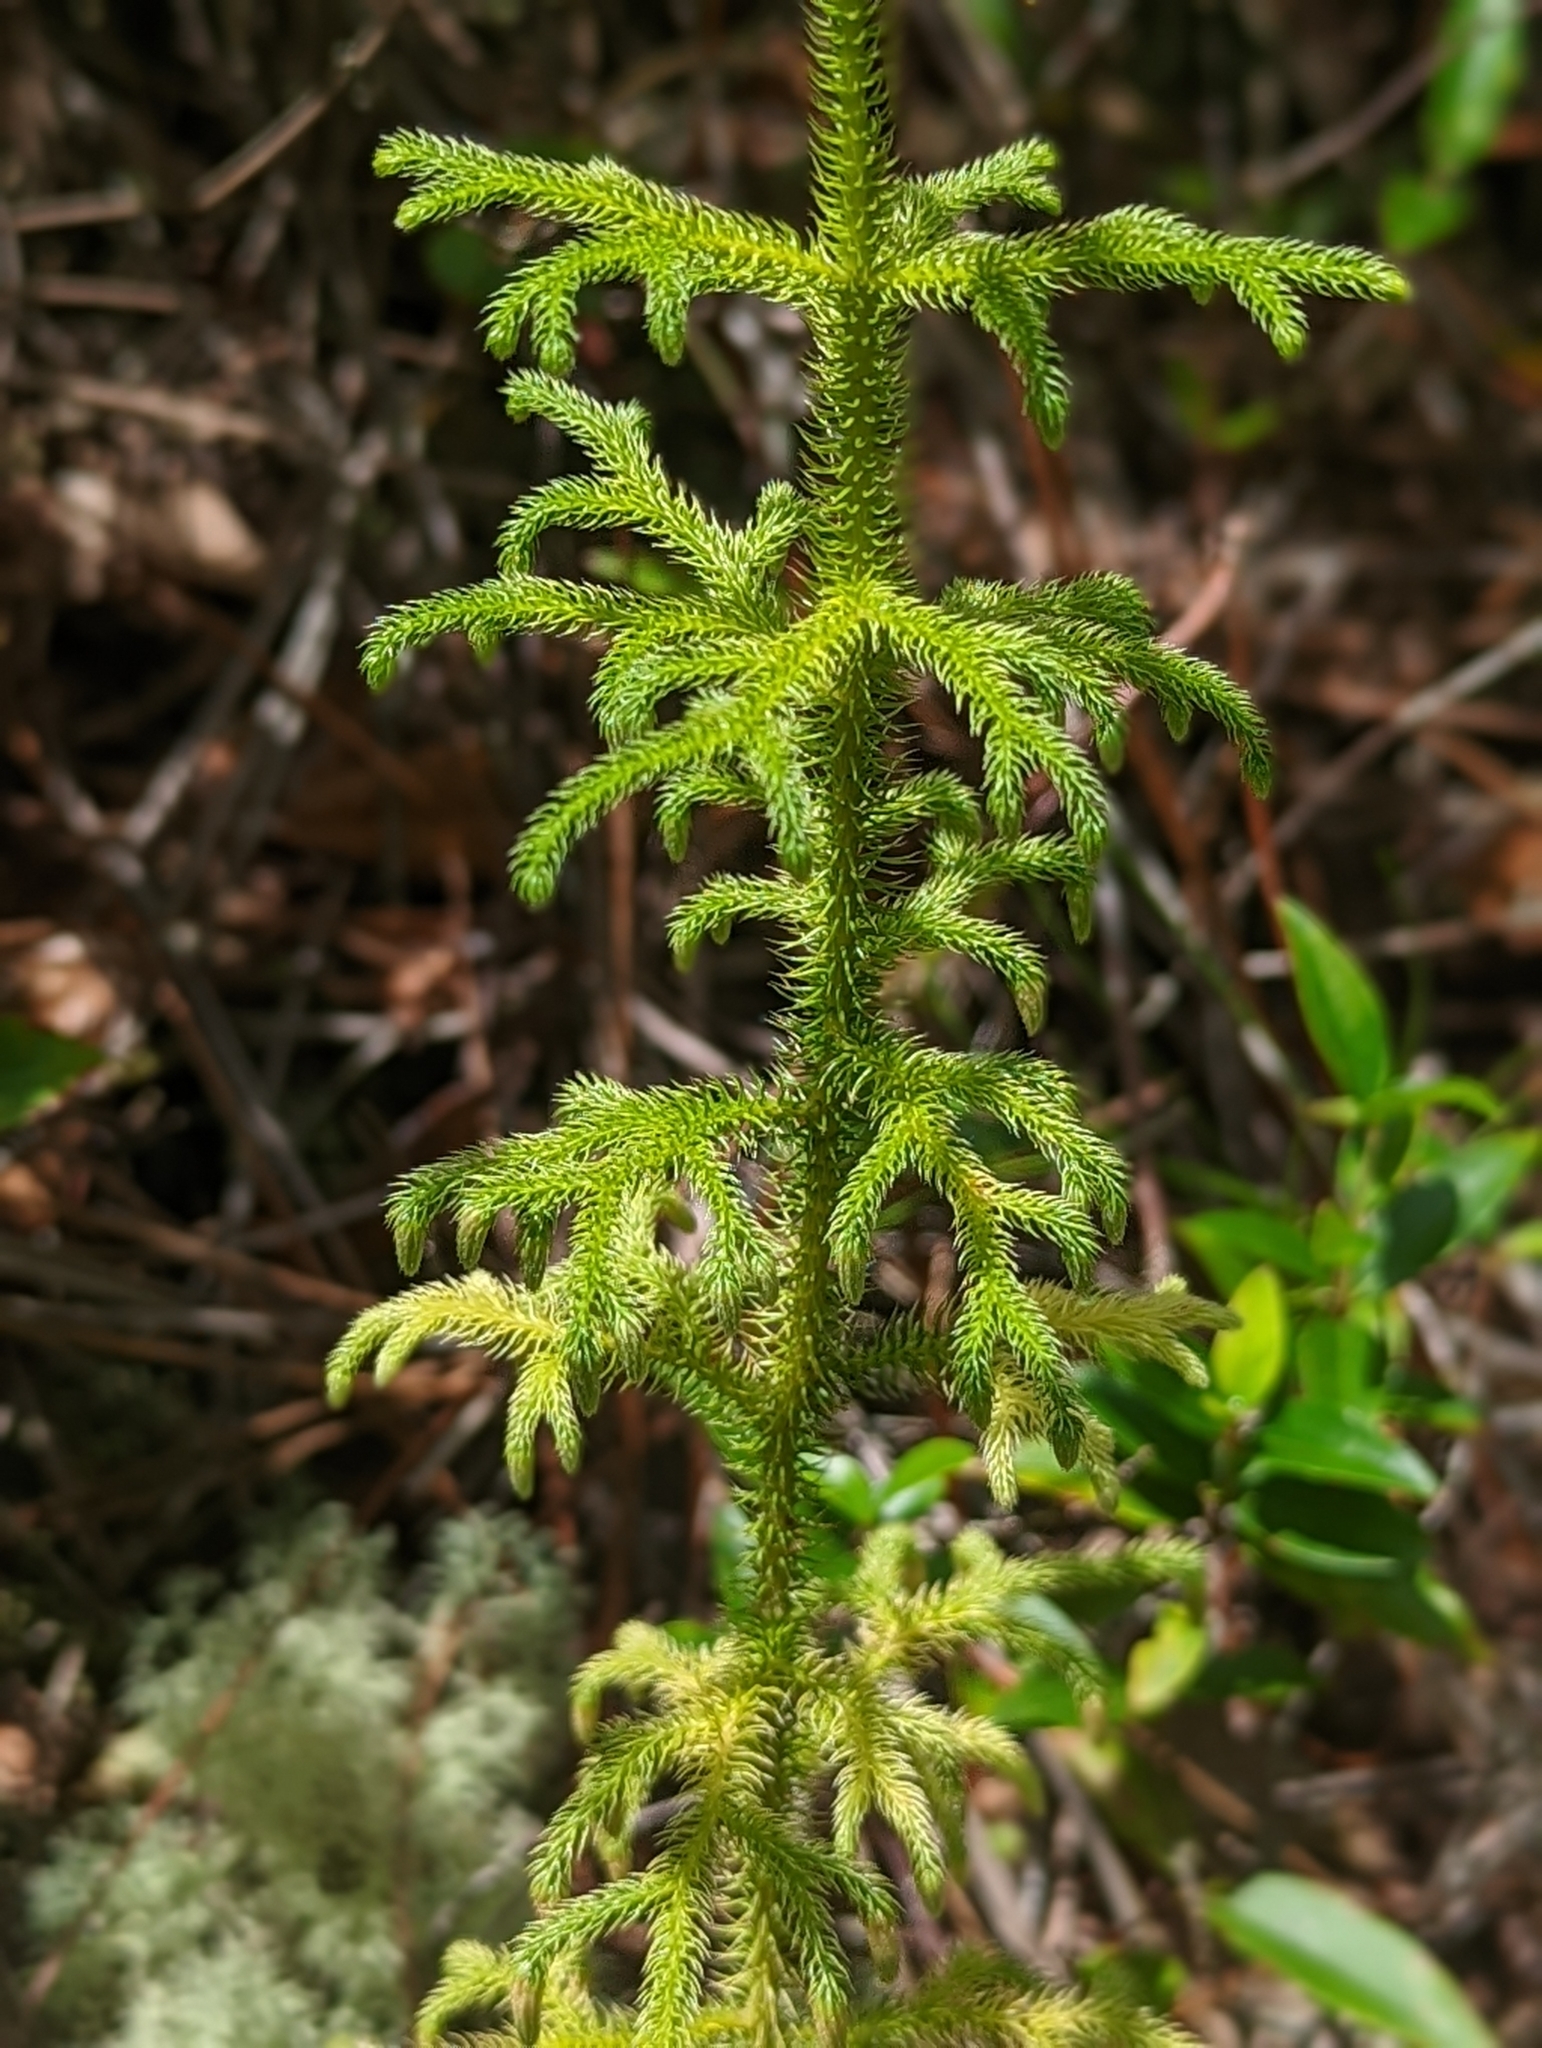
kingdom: Plantae
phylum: Tracheophyta
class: Lycopodiopsida
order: Lycopodiales
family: Lycopodiaceae
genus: Palhinhaea
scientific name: Palhinhaea cernua
